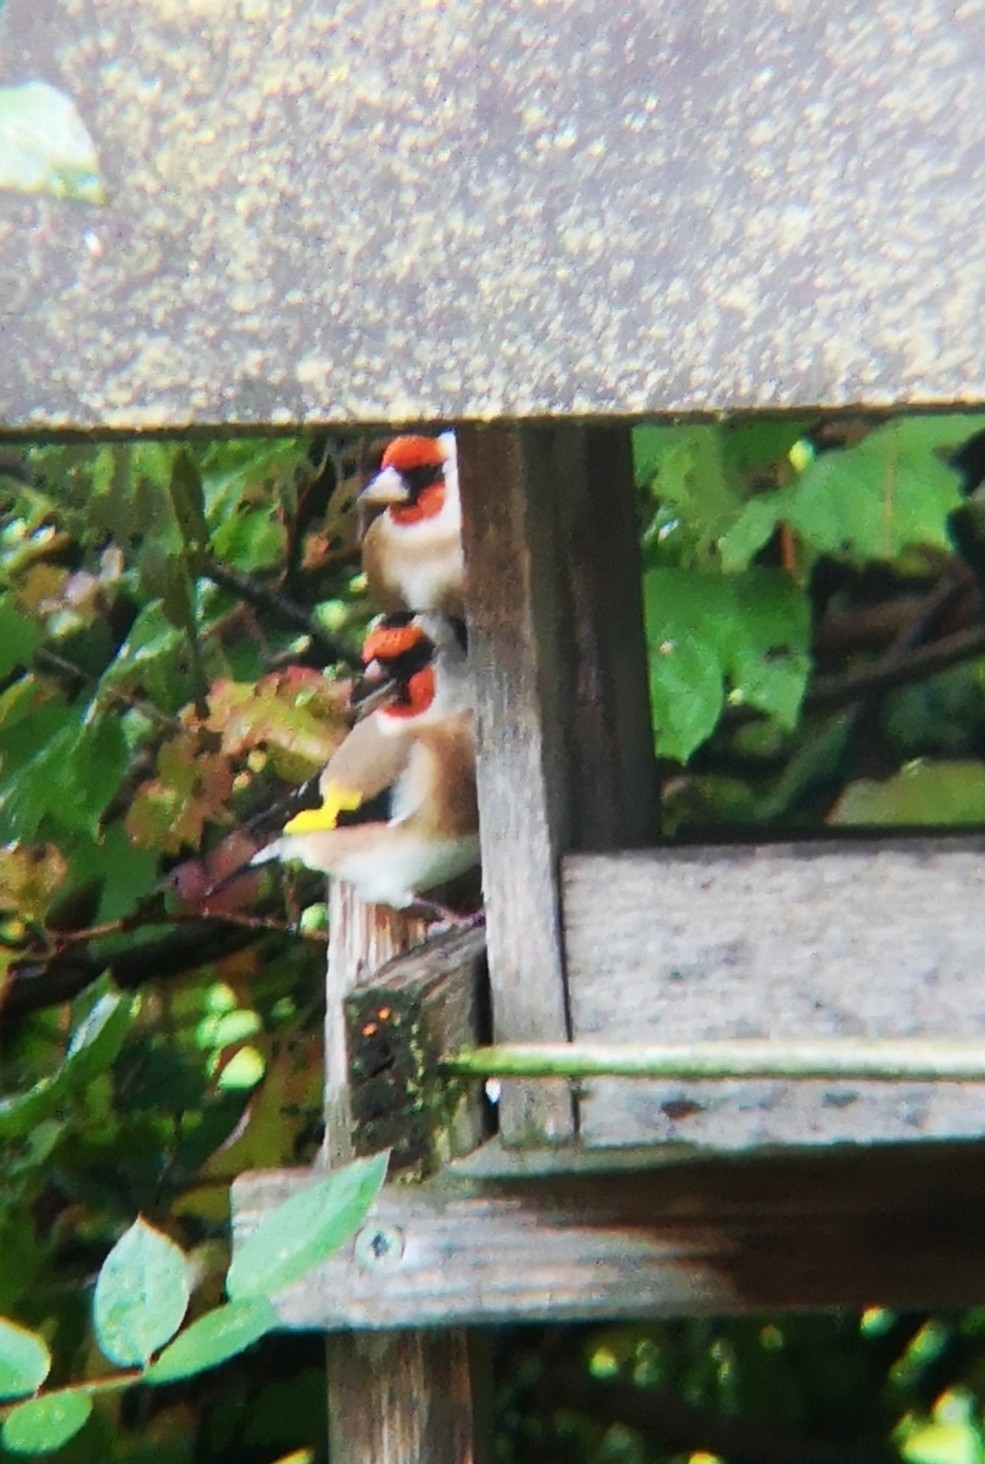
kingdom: Animalia
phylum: Chordata
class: Aves
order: Passeriformes
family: Fringillidae
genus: Carduelis
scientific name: Carduelis carduelis
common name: European goldfinch
